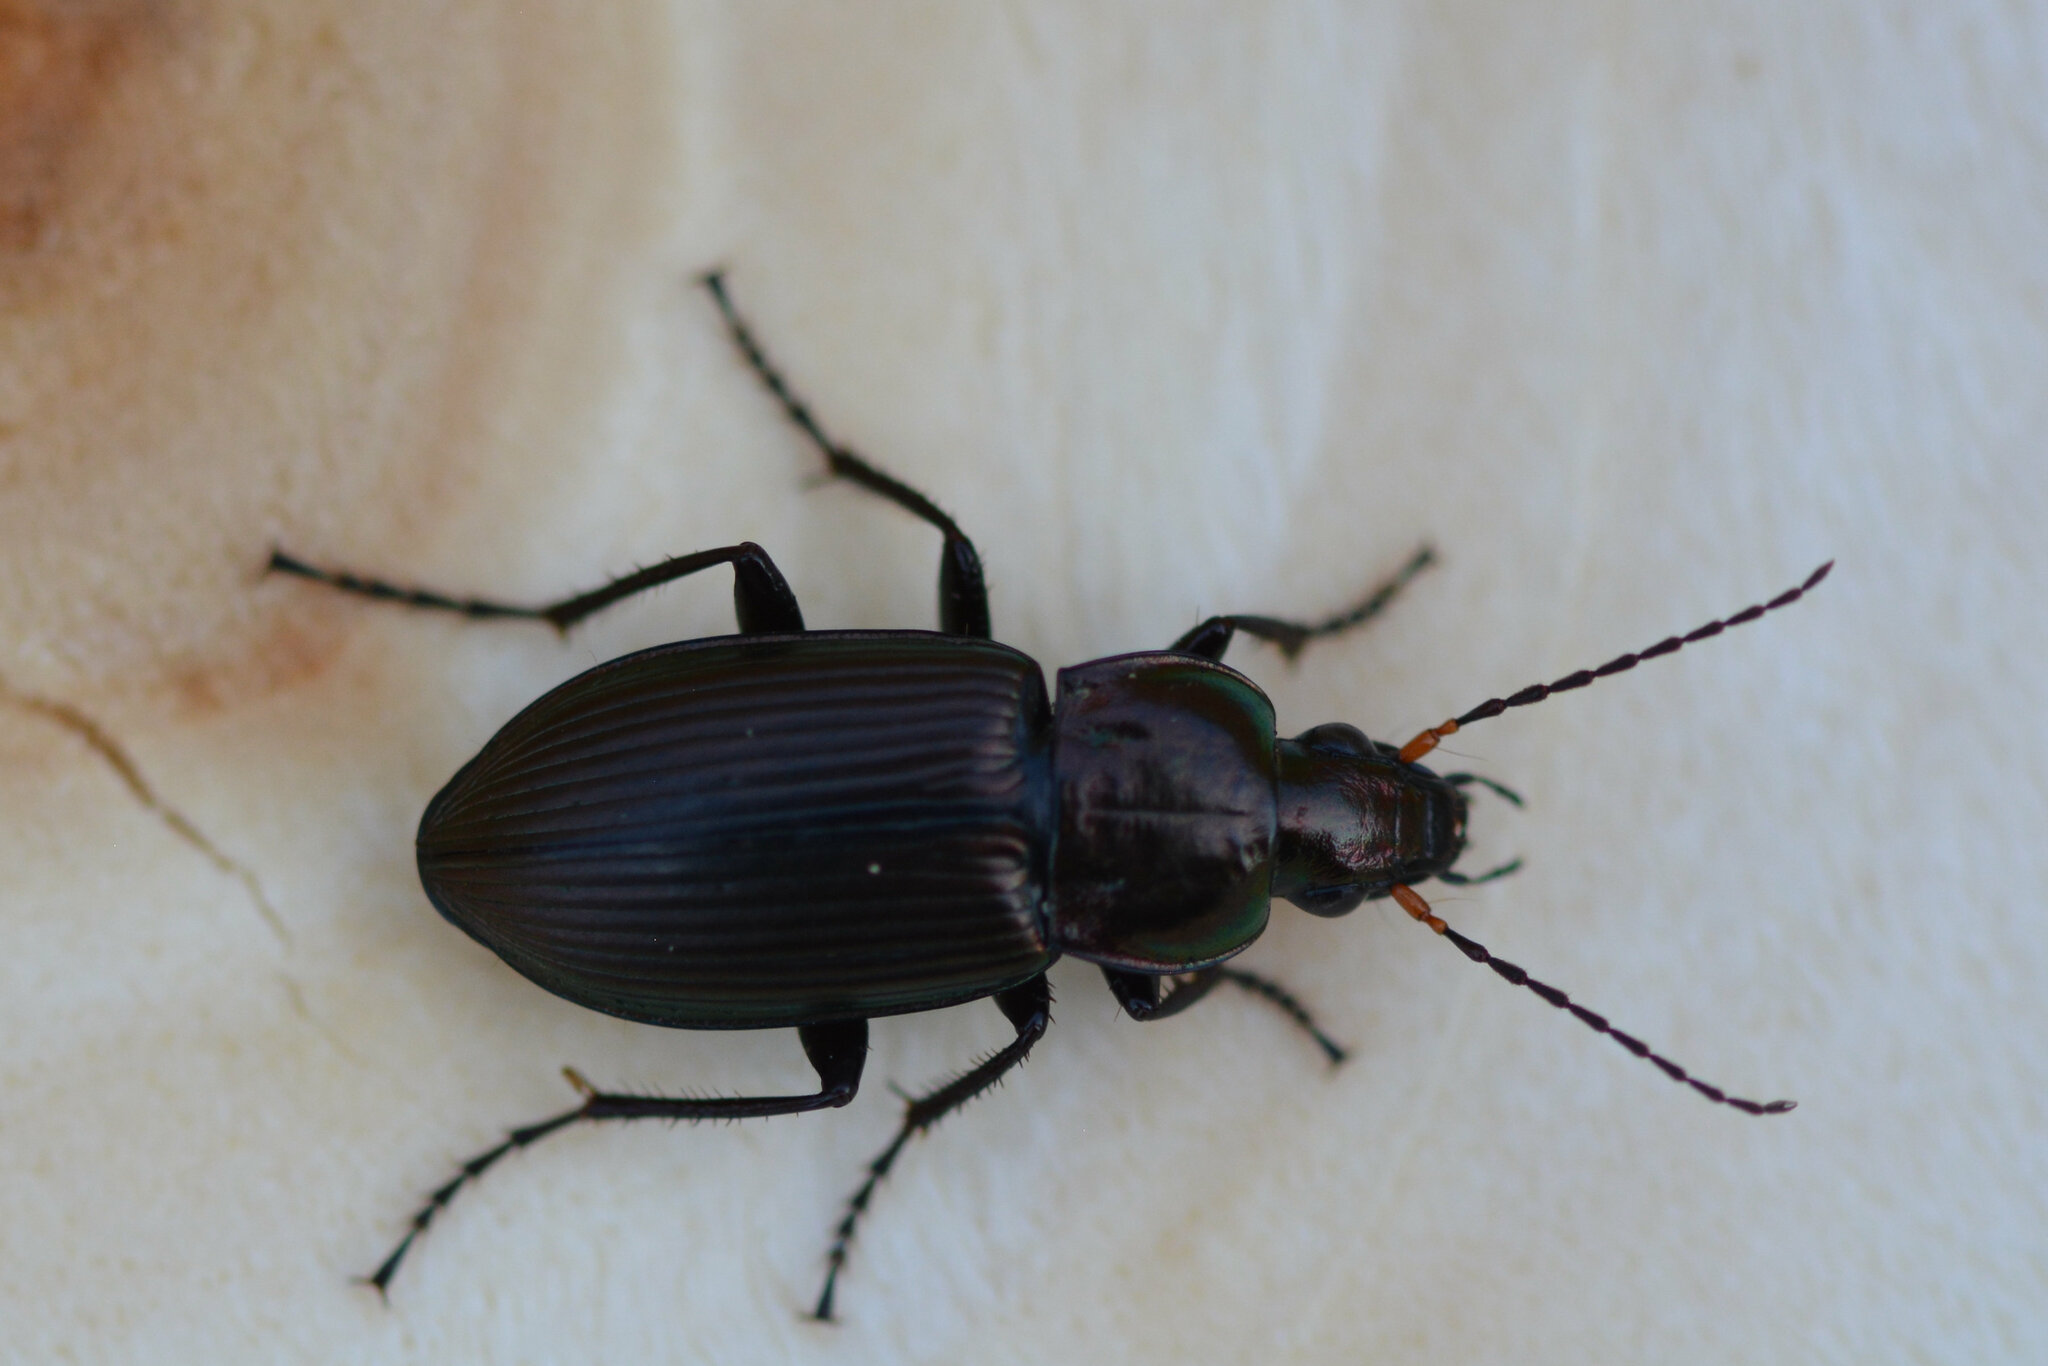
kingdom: Animalia
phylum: Arthropoda
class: Insecta
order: Coleoptera
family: Carabidae
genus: Poecilus
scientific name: Poecilus cupreus
